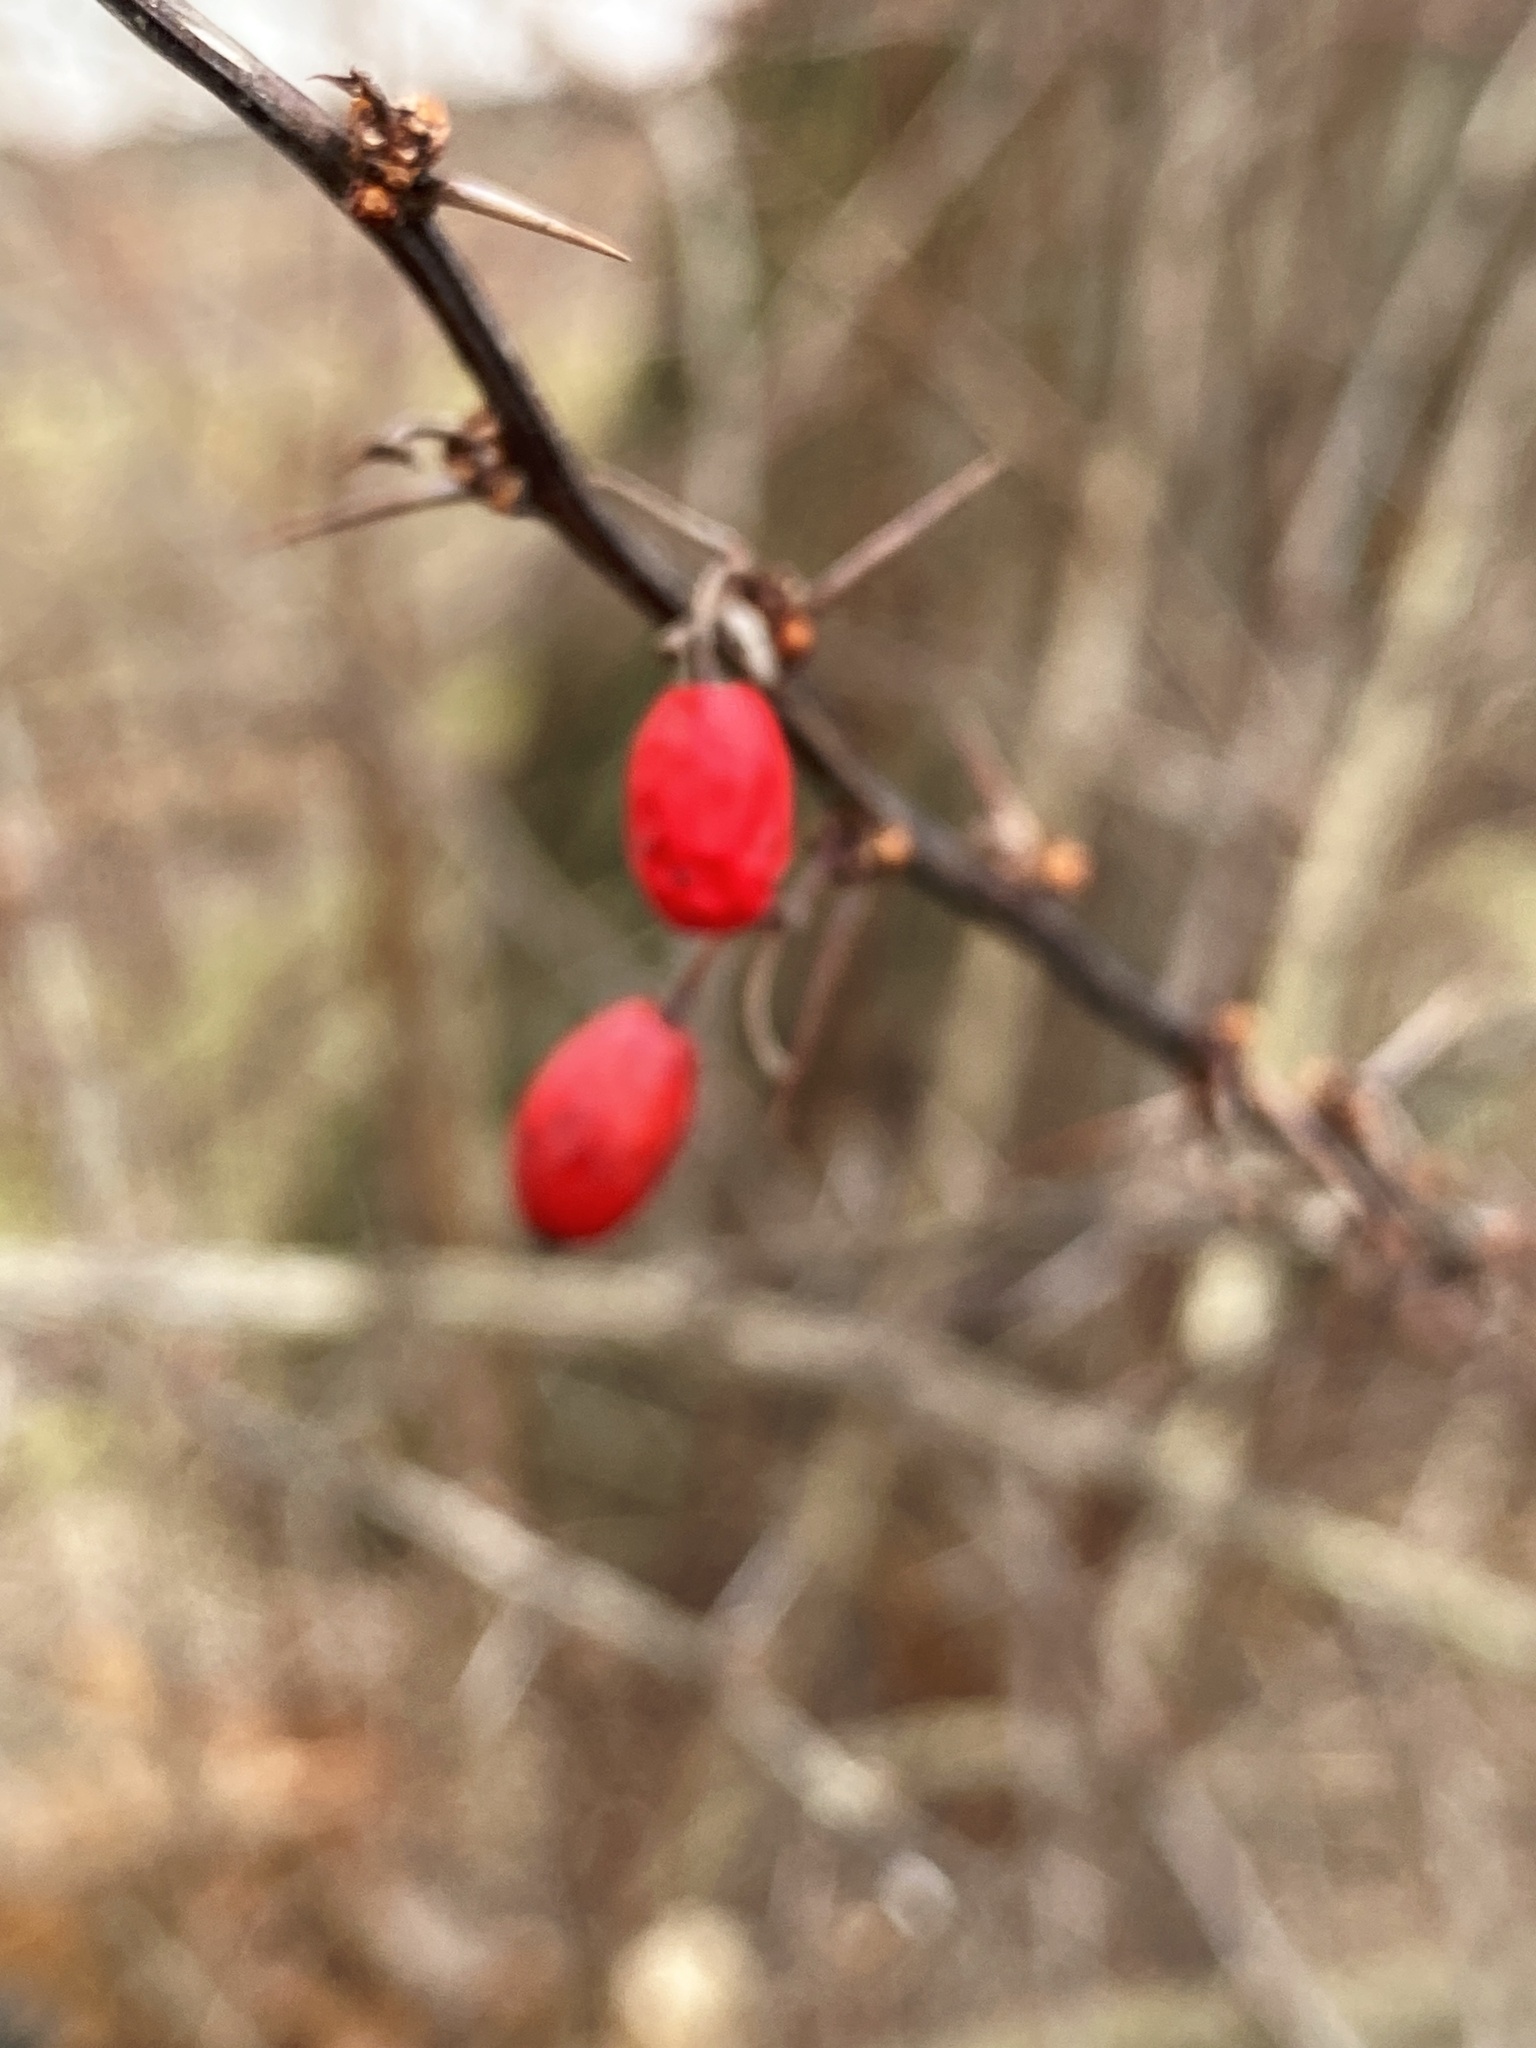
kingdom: Plantae
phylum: Tracheophyta
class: Magnoliopsida
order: Ranunculales
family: Berberidaceae
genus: Berberis
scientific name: Berberis thunbergii
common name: Japanese barberry
